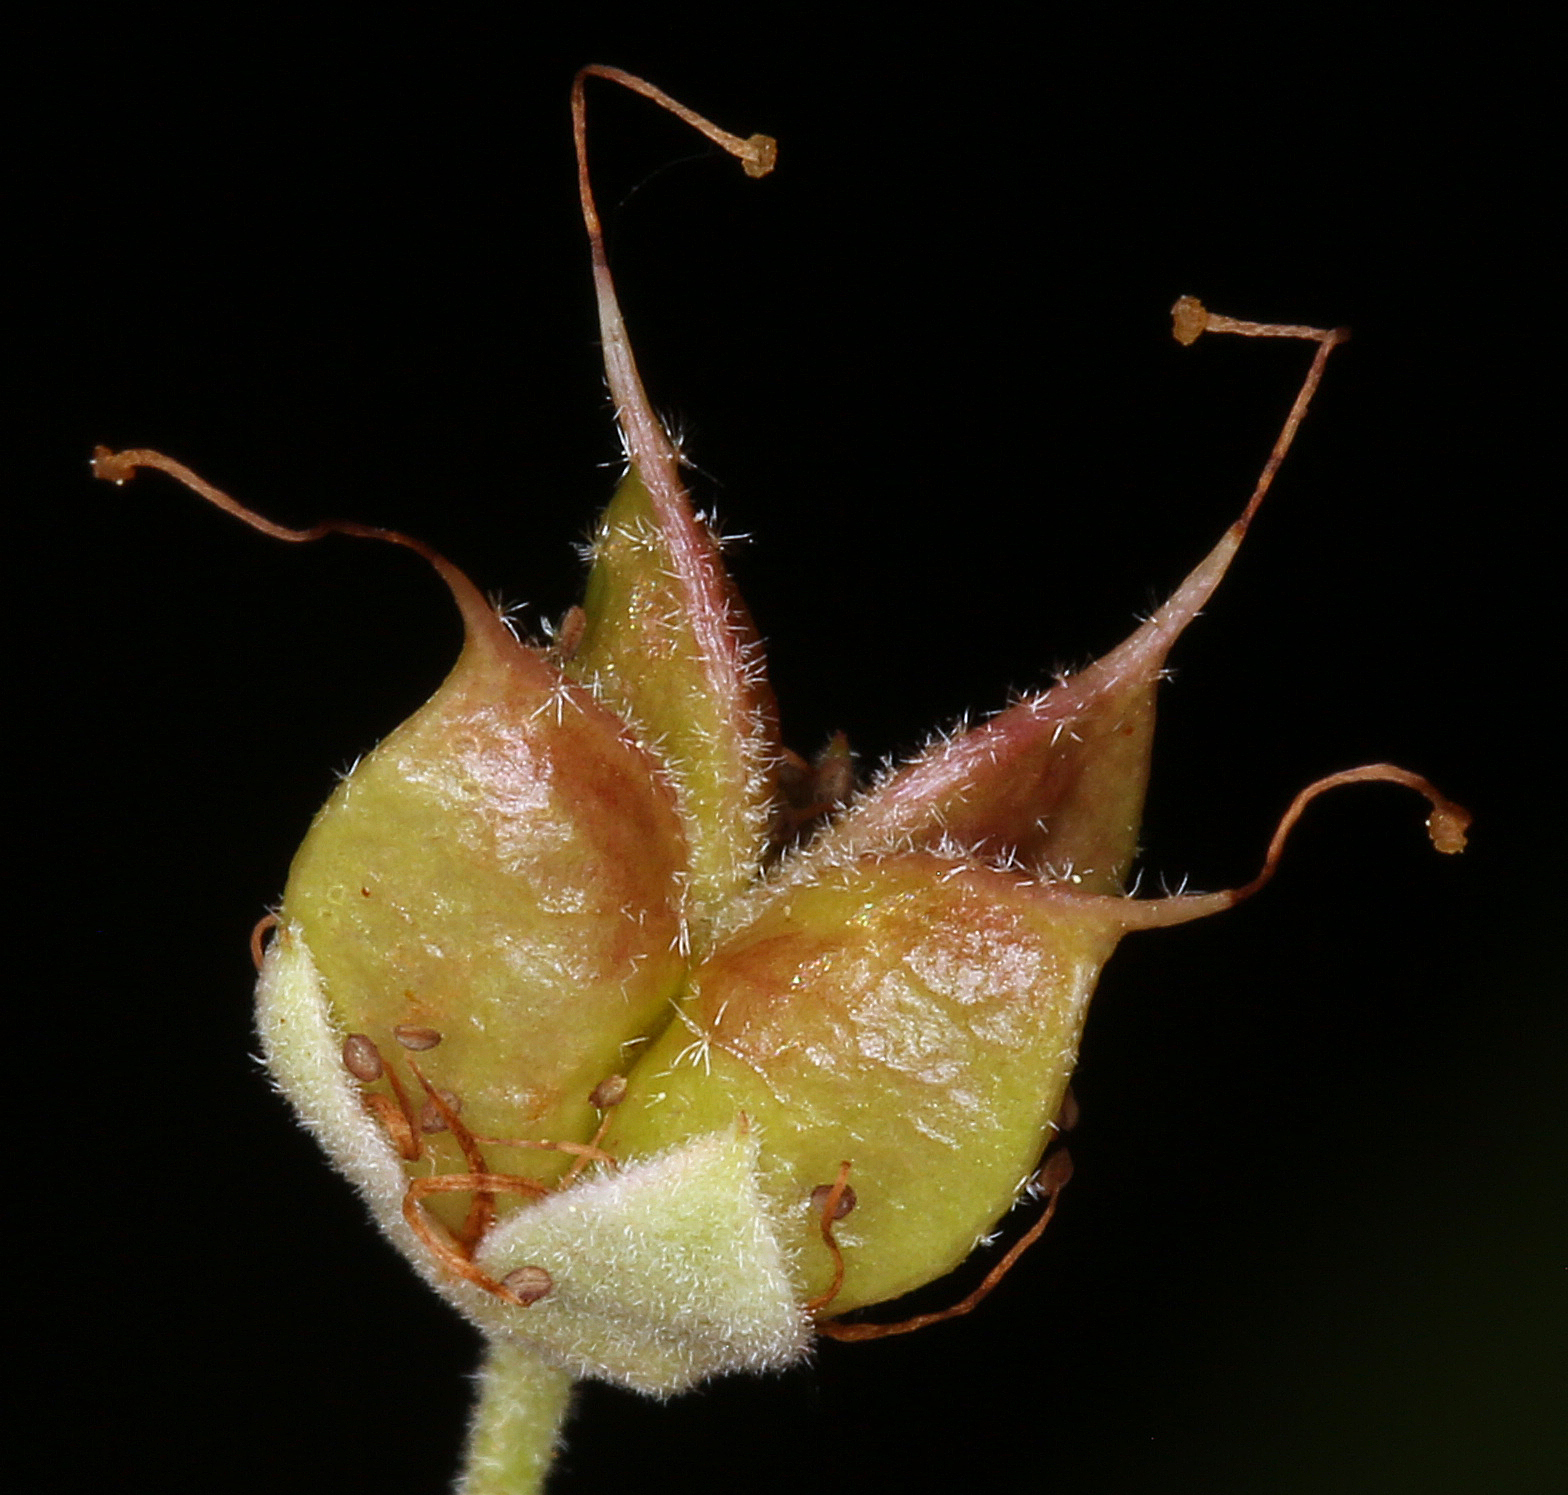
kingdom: Plantae
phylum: Tracheophyta
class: Magnoliopsida
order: Rosales
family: Rosaceae
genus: Physocarpus
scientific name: Physocarpus capitatus
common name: Pacific ninebark
